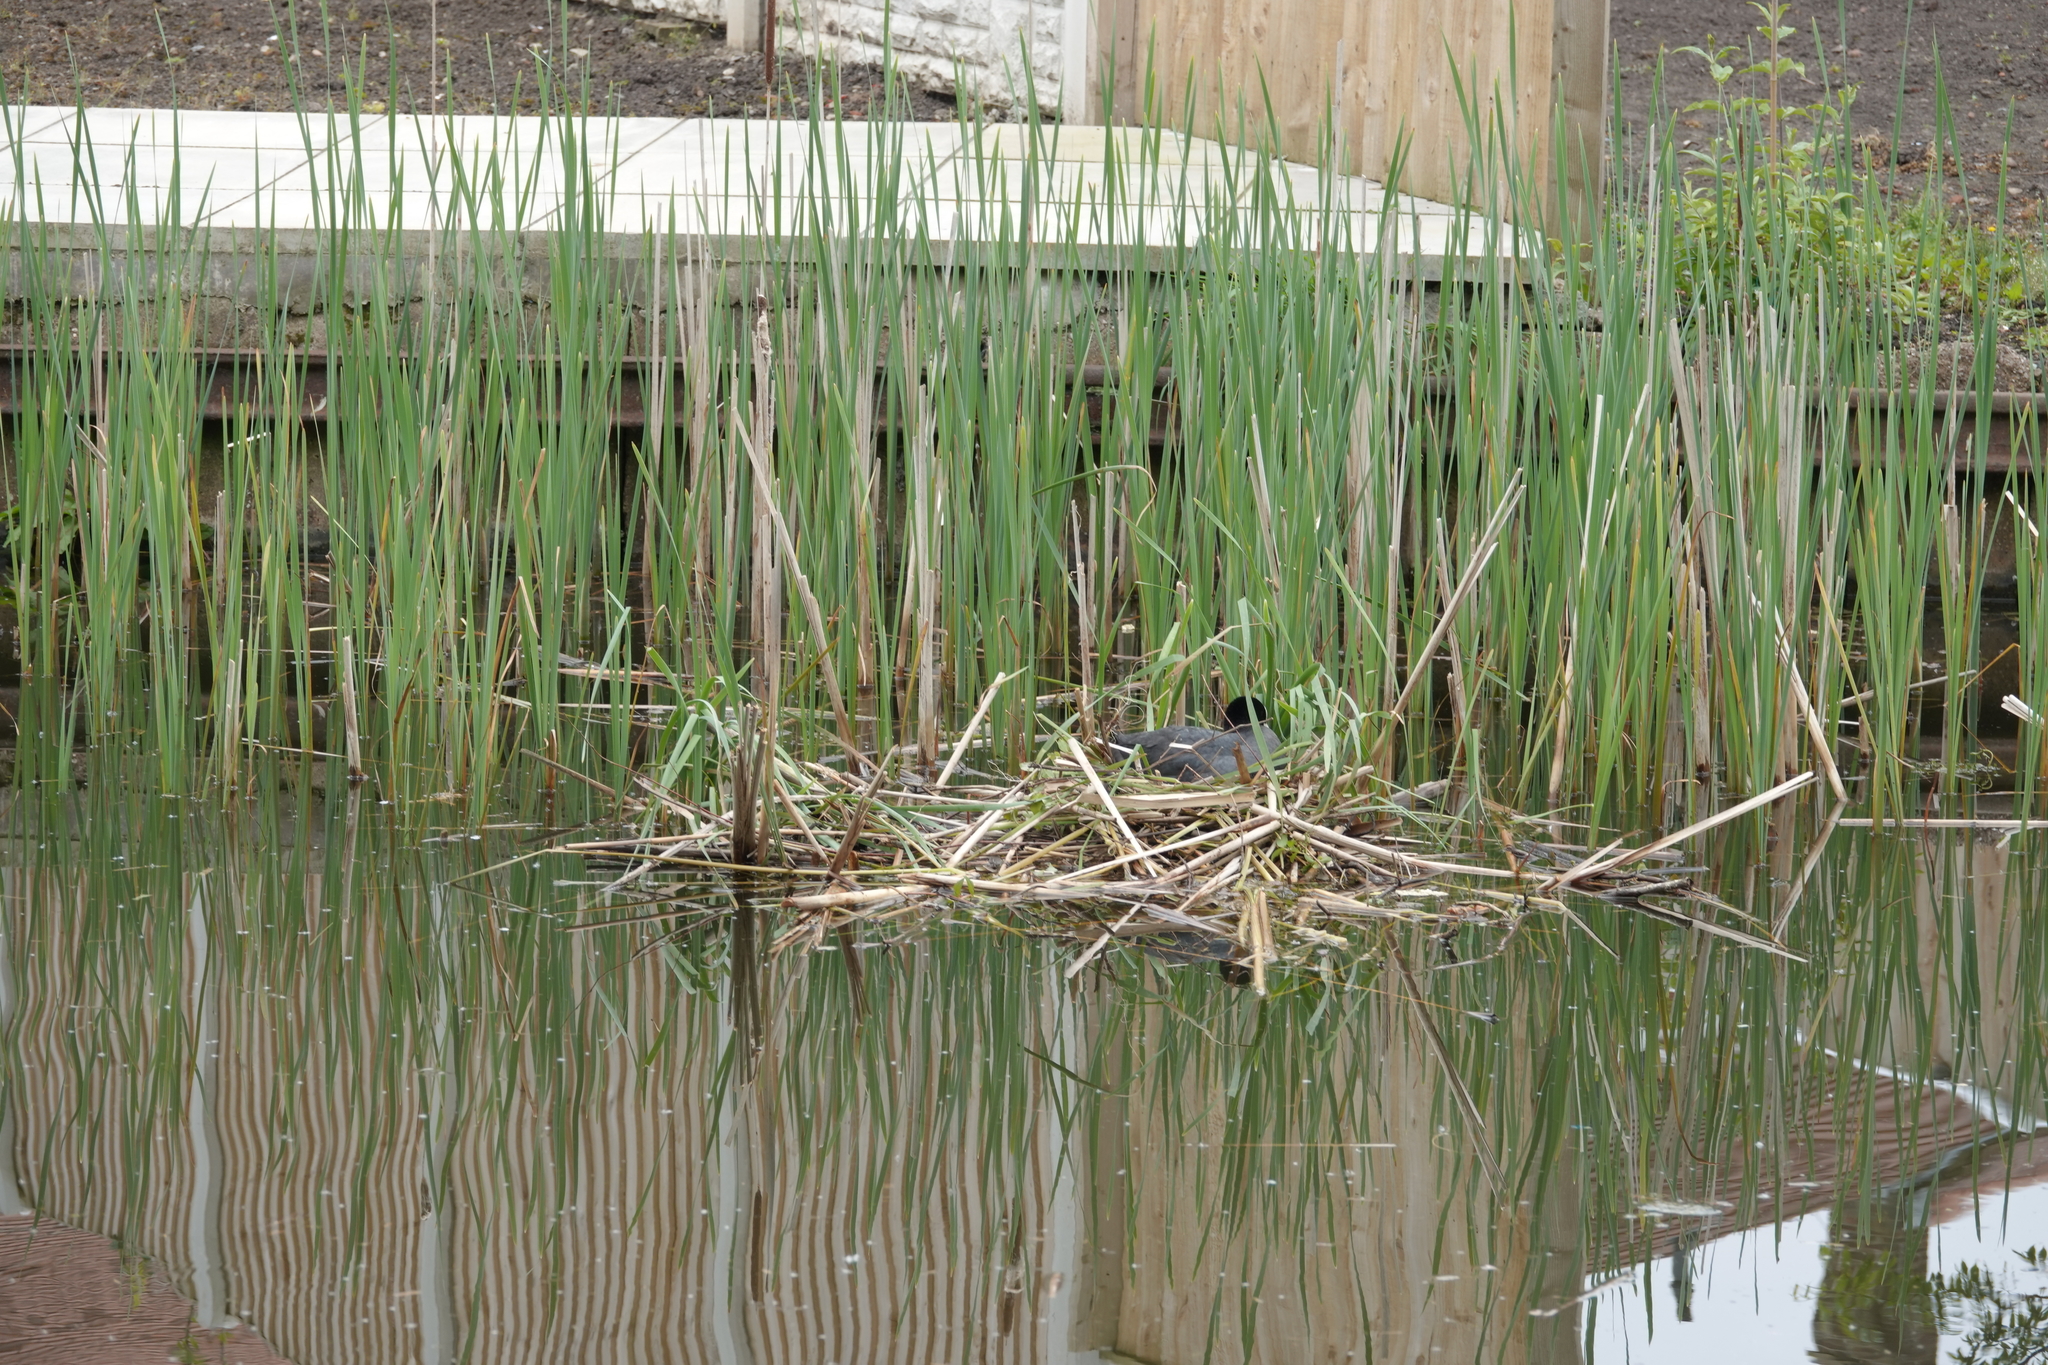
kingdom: Animalia
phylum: Chordata
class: Aves
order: Gruiformes
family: Rallidae
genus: Fulica
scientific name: Fulica atra
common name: Eurasian coot
